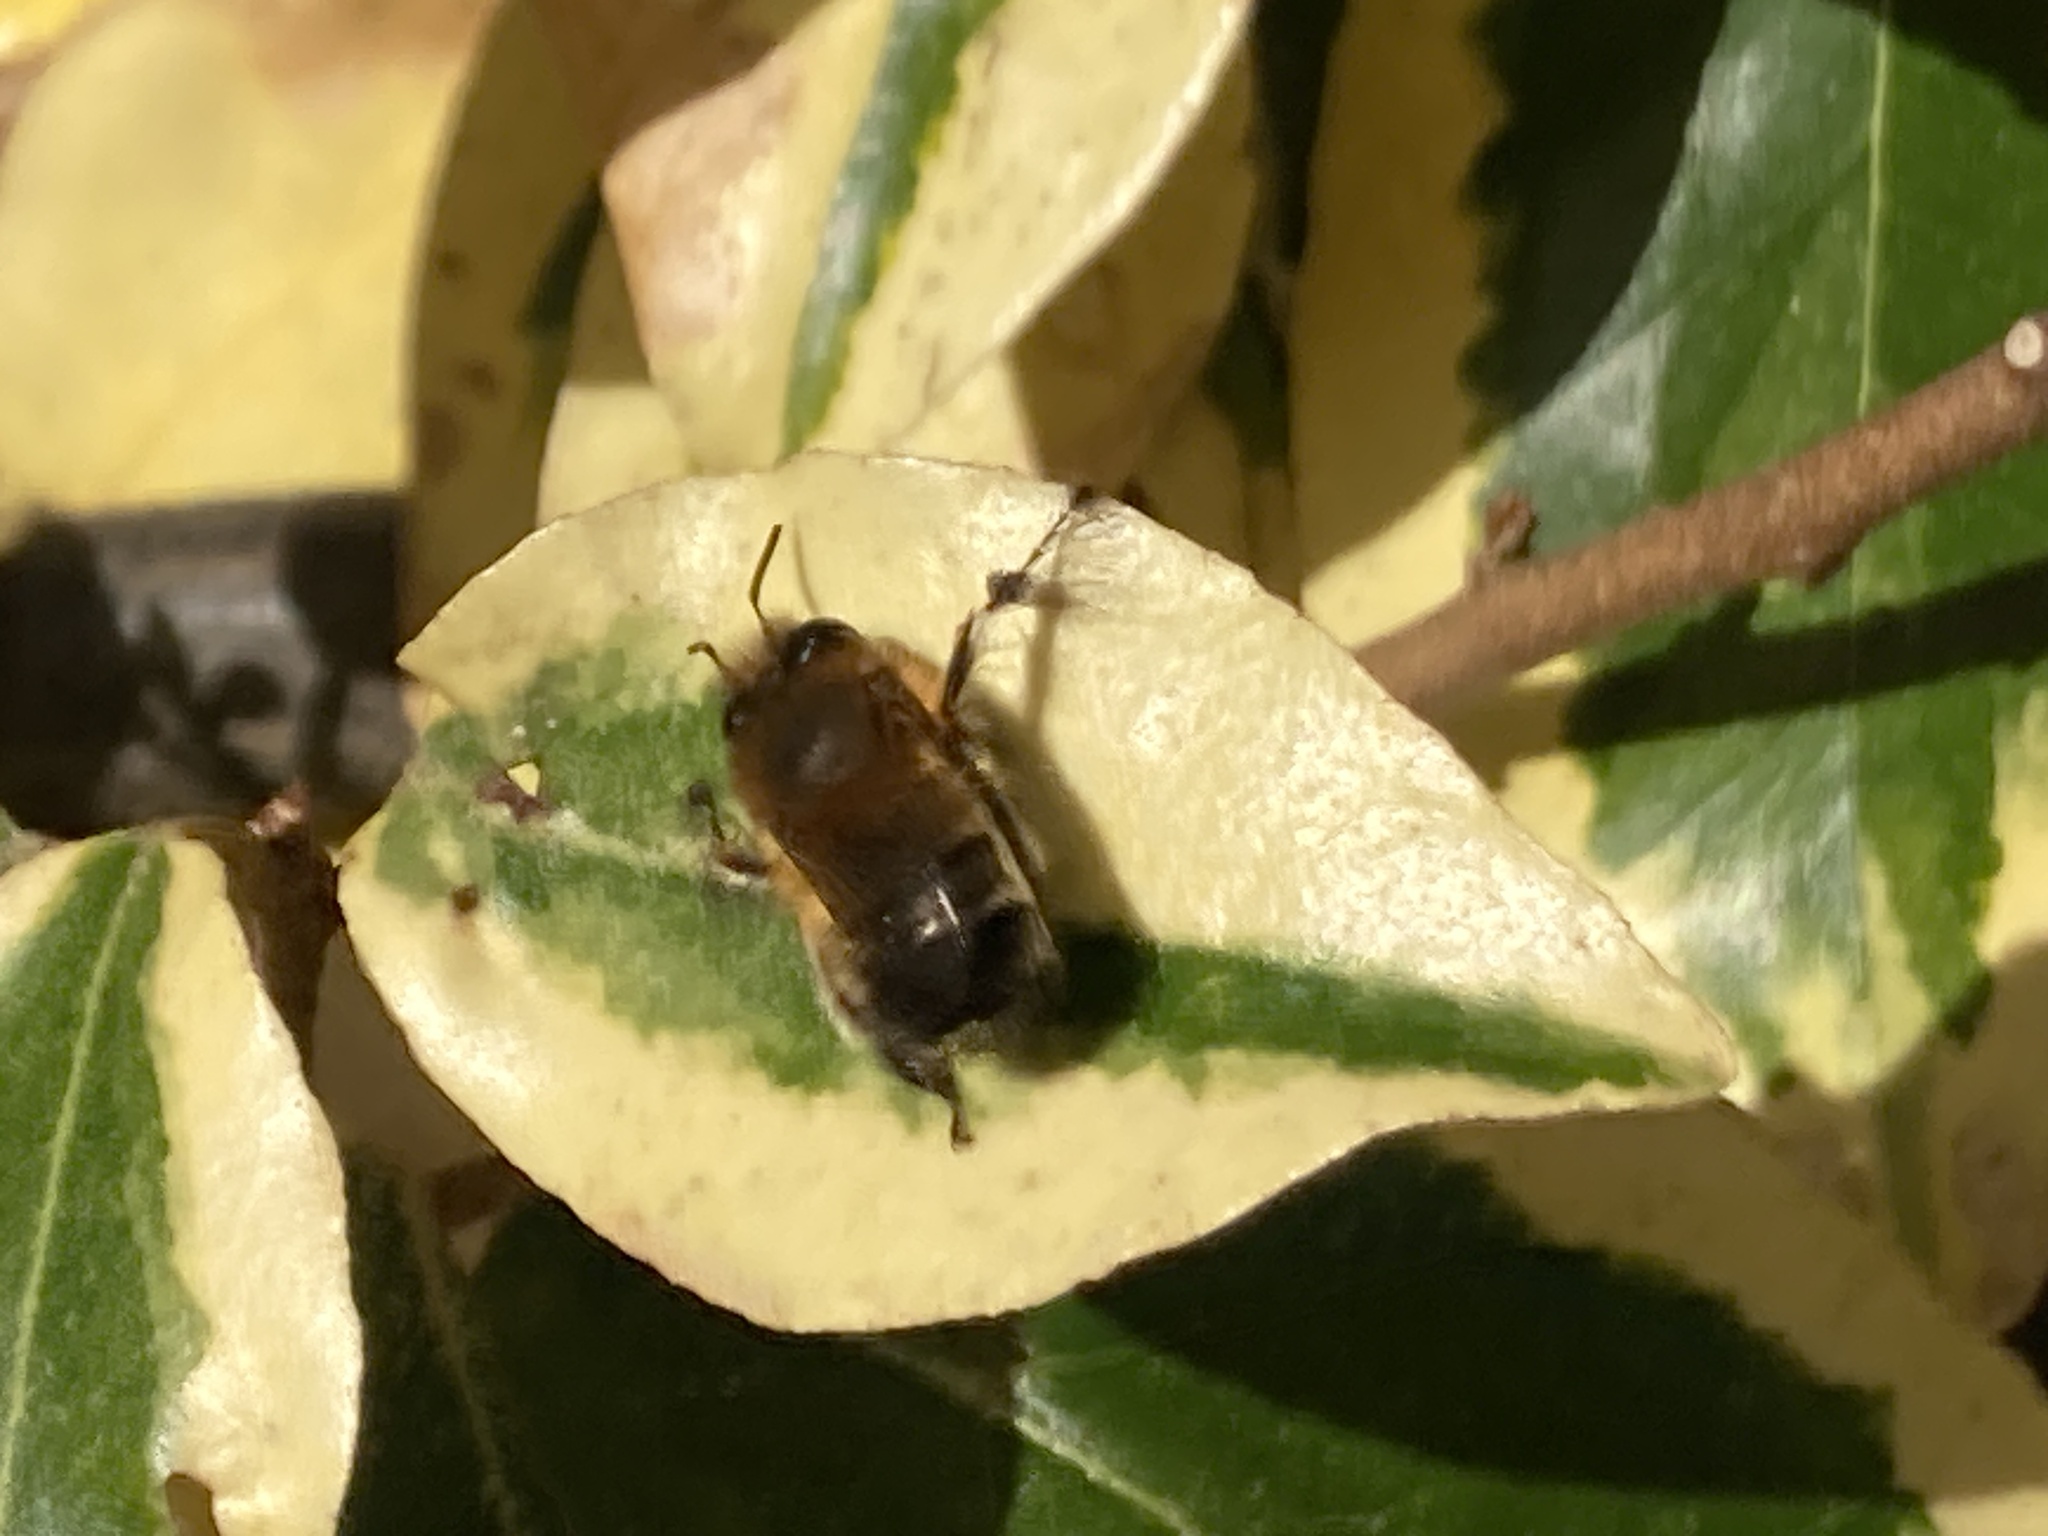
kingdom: Animalia
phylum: Arthropoda
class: Insecta
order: Hymenoptera
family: Apidae
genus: Anthophora
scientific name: Anthophora plumipes
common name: Hairy-footed flower bee
